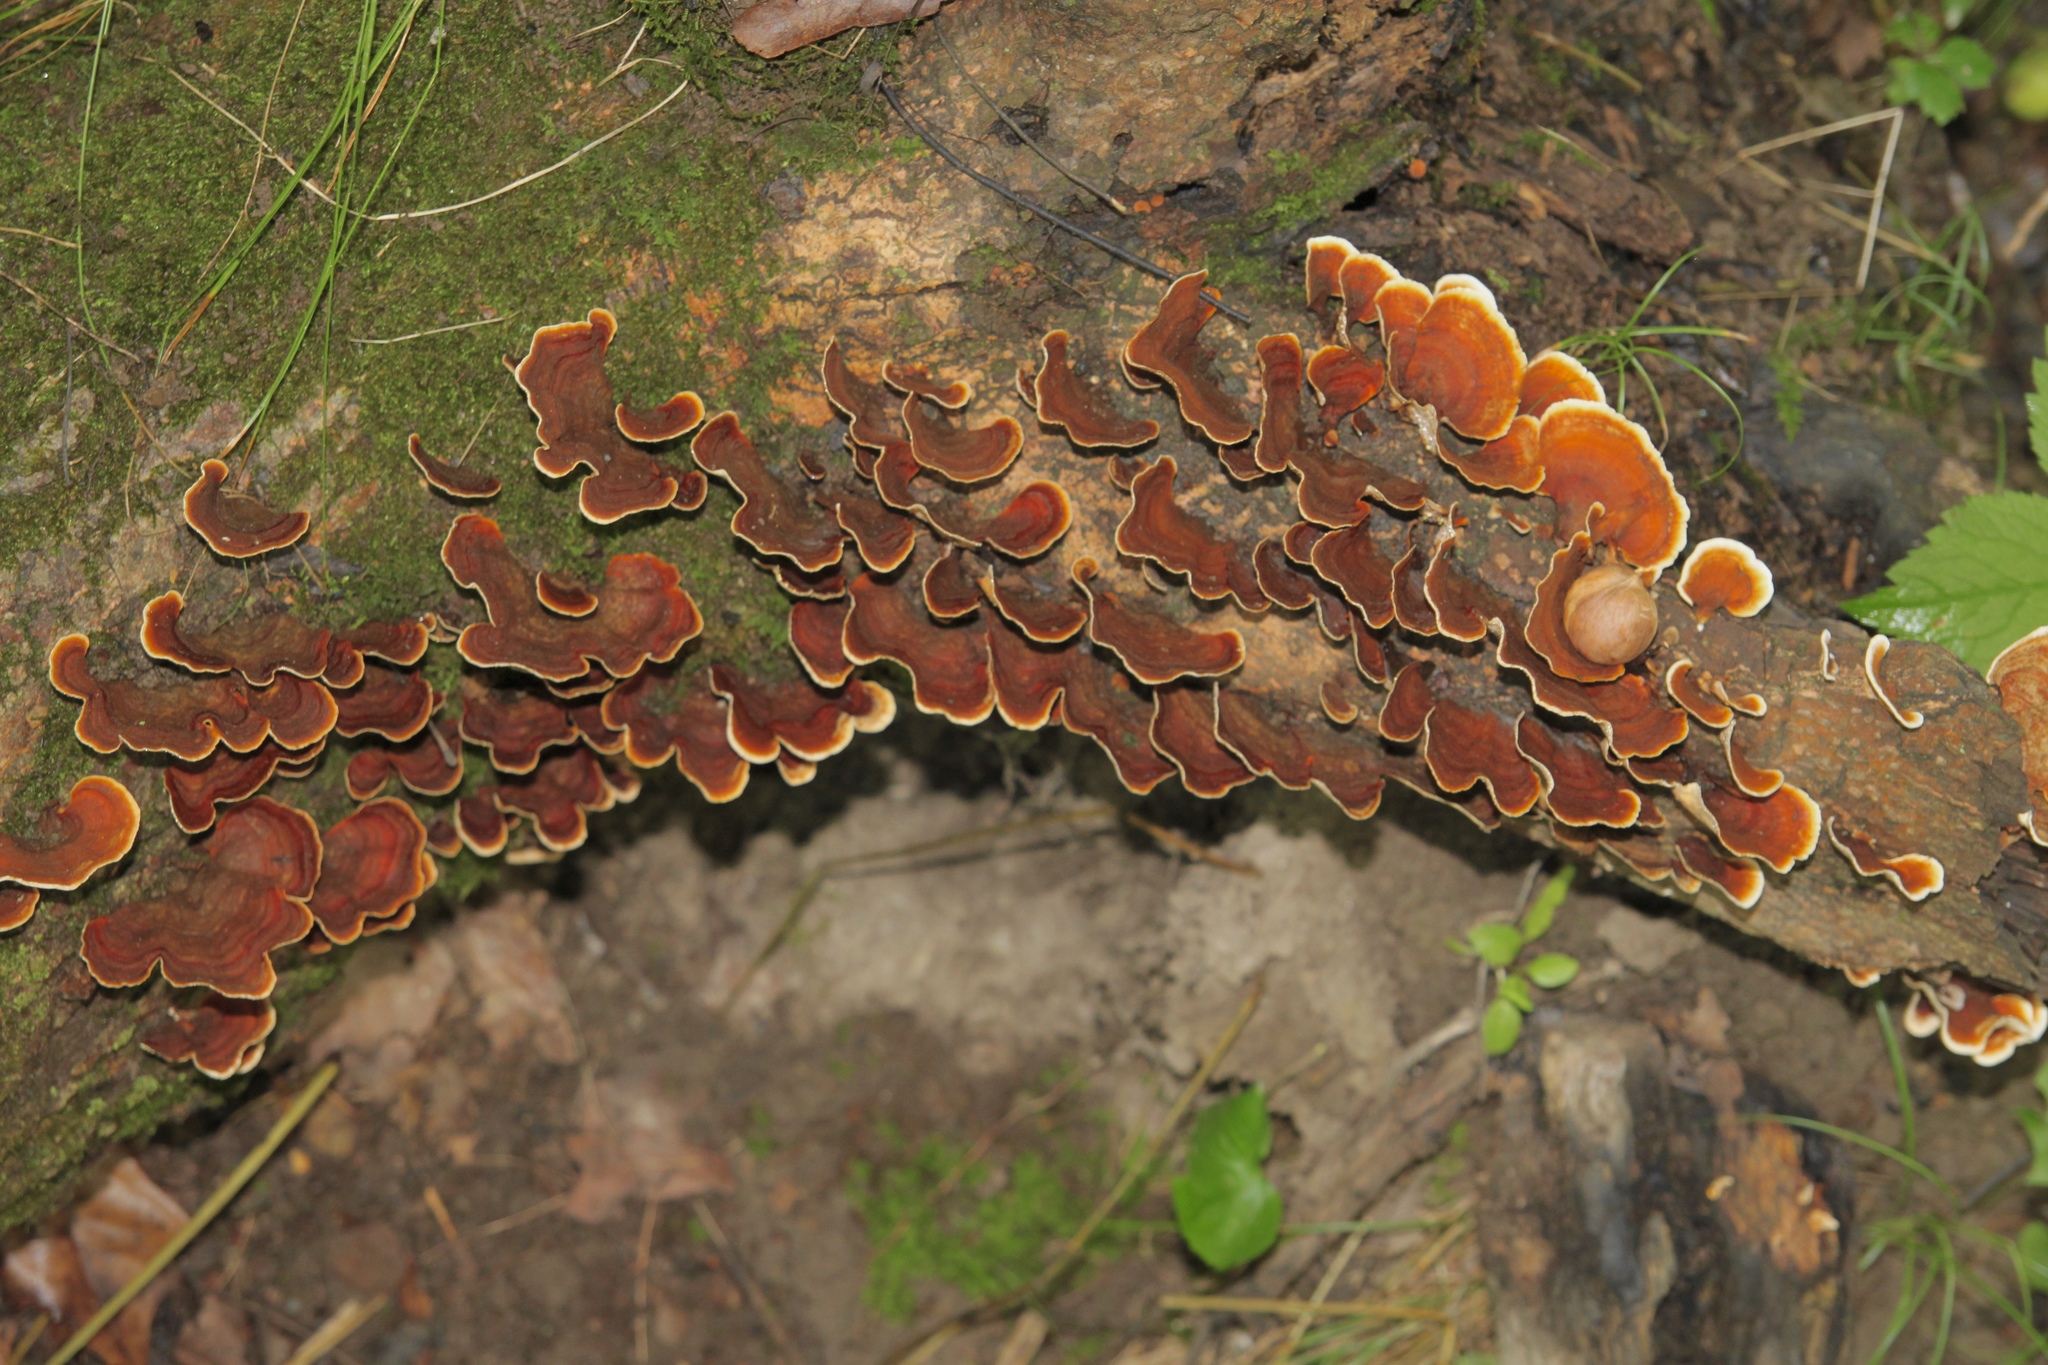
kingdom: Fungi
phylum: Basidiomycota
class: Agaricomycetes
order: Russulales
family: Stereaceae
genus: Stereum
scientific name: Stereum ostrea
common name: False turkeytail
